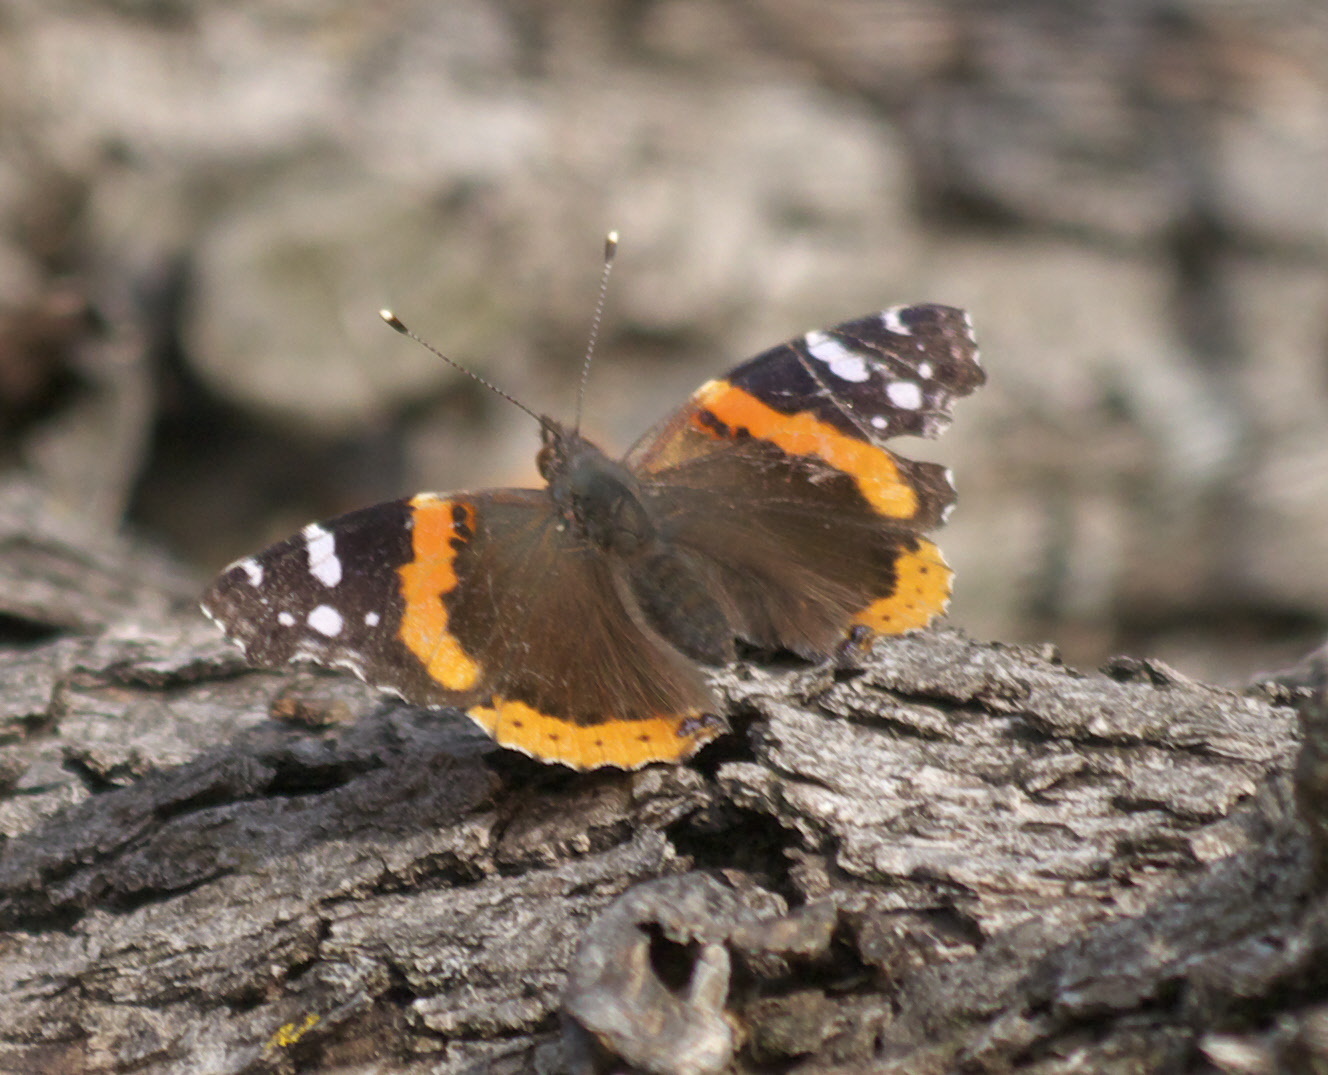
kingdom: Animalia
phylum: Arthropoda
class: Insecta
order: Lepidoptera
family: Nymphalidae
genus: Vanessa
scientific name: Vanessa atalanta
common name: Red admiral
